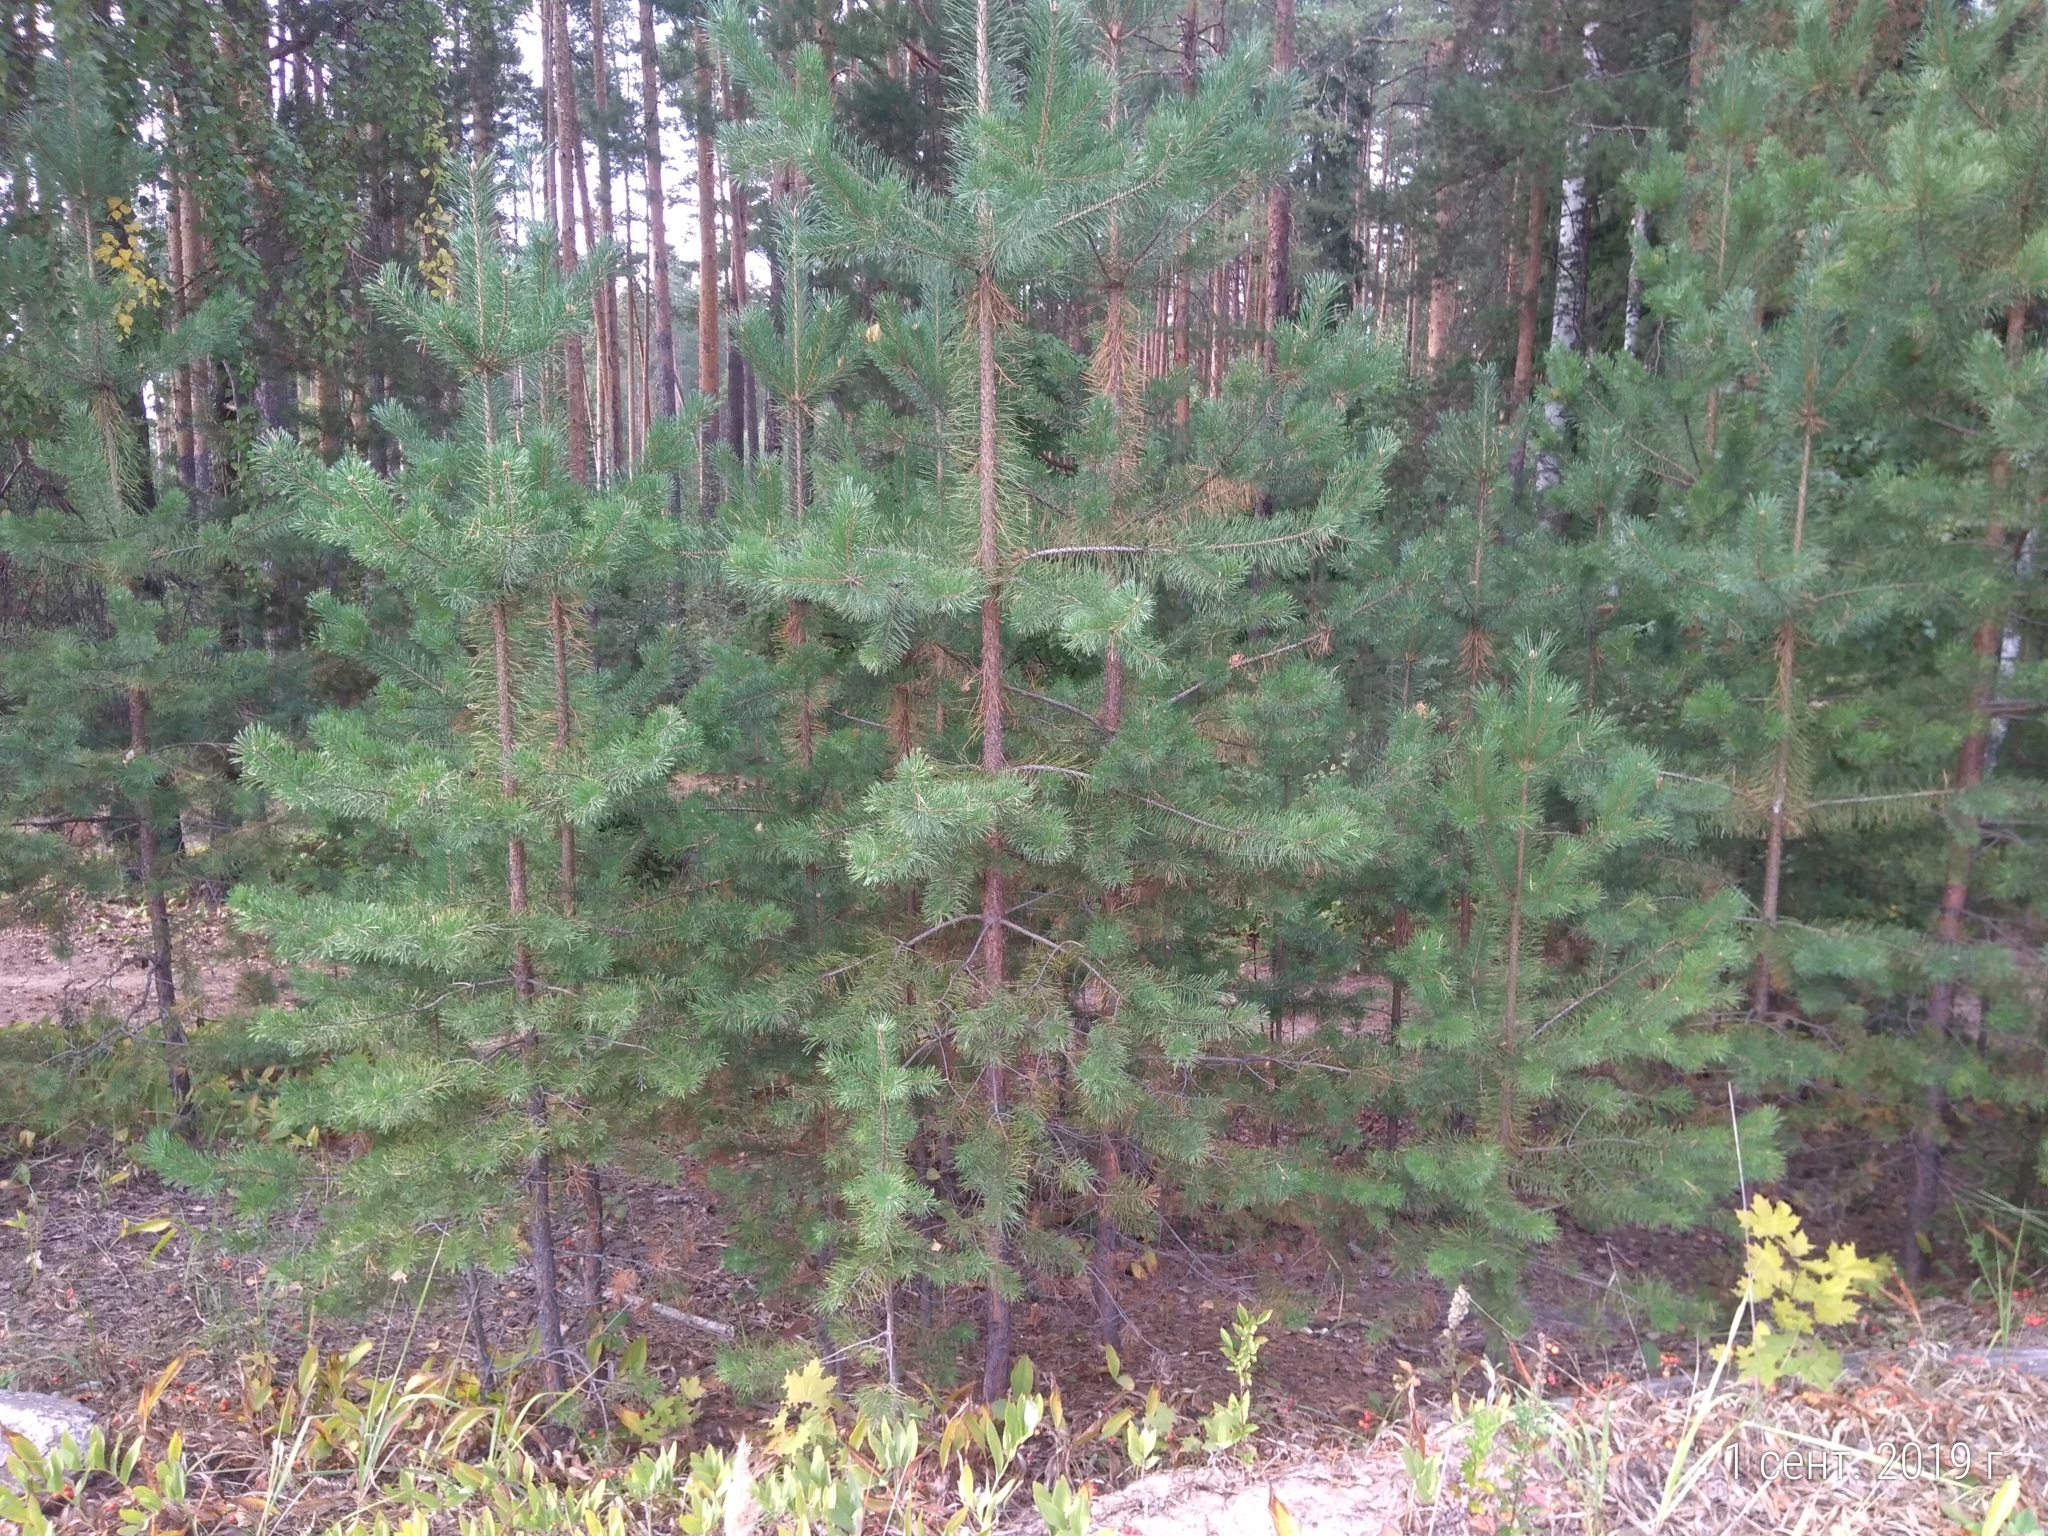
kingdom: Plantae
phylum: Tracheophyta
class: Pinopsida
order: Pinales
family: Pinaceae
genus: Pinus
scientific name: Pinus sylvestris
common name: Scots pine
